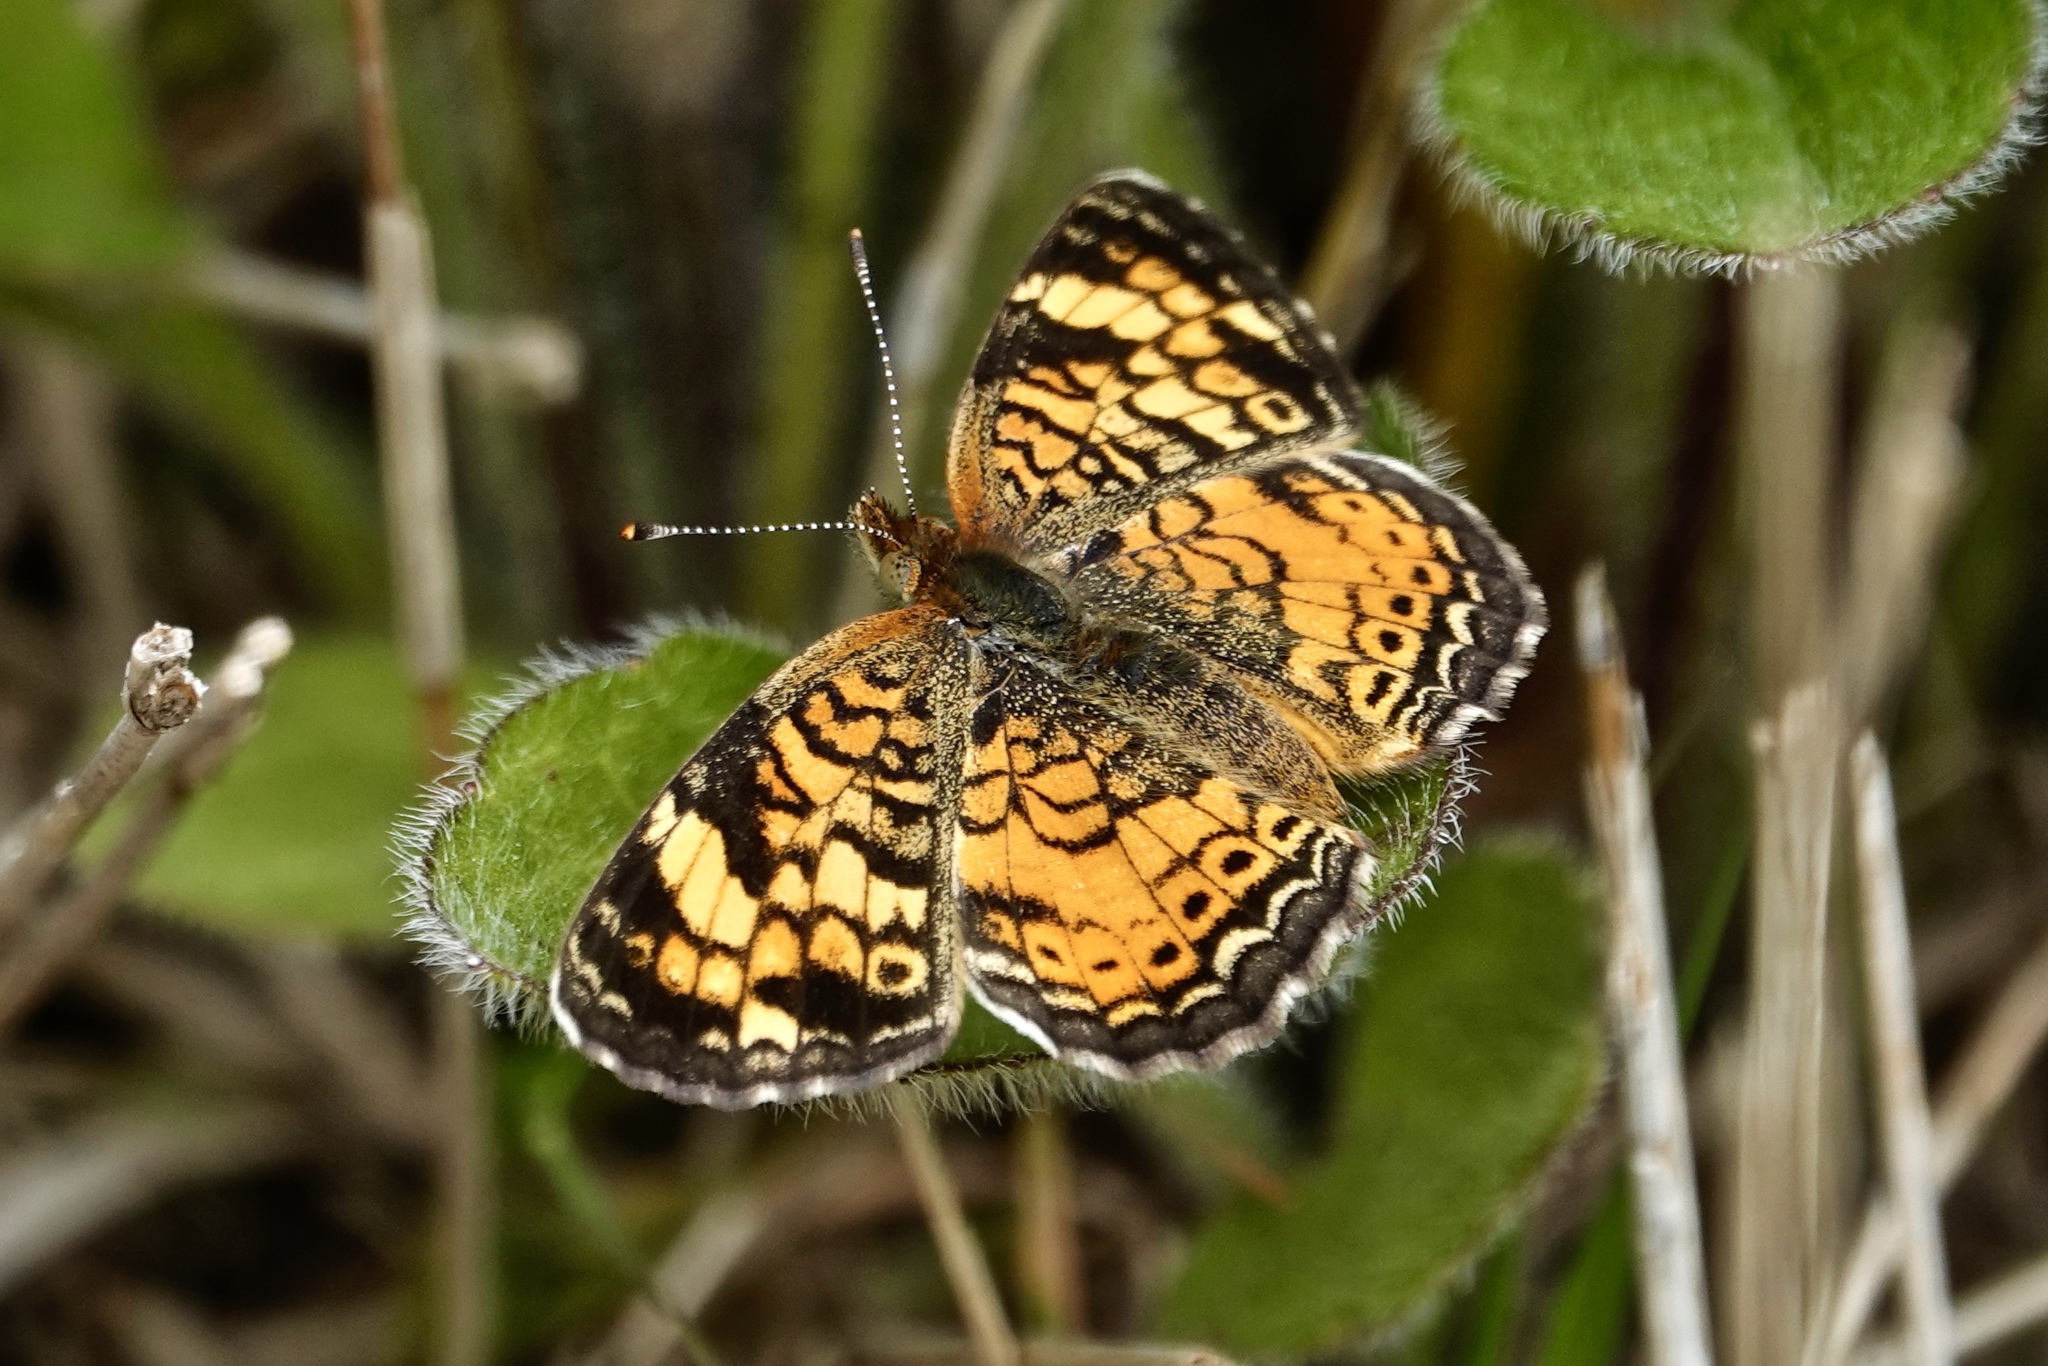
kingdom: Animalia
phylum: Arthropoda
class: Insecta
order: Lepidoptera
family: Nymphalidae
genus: Phyciodes
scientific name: Phyciodes tharos
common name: Pearl crescent
